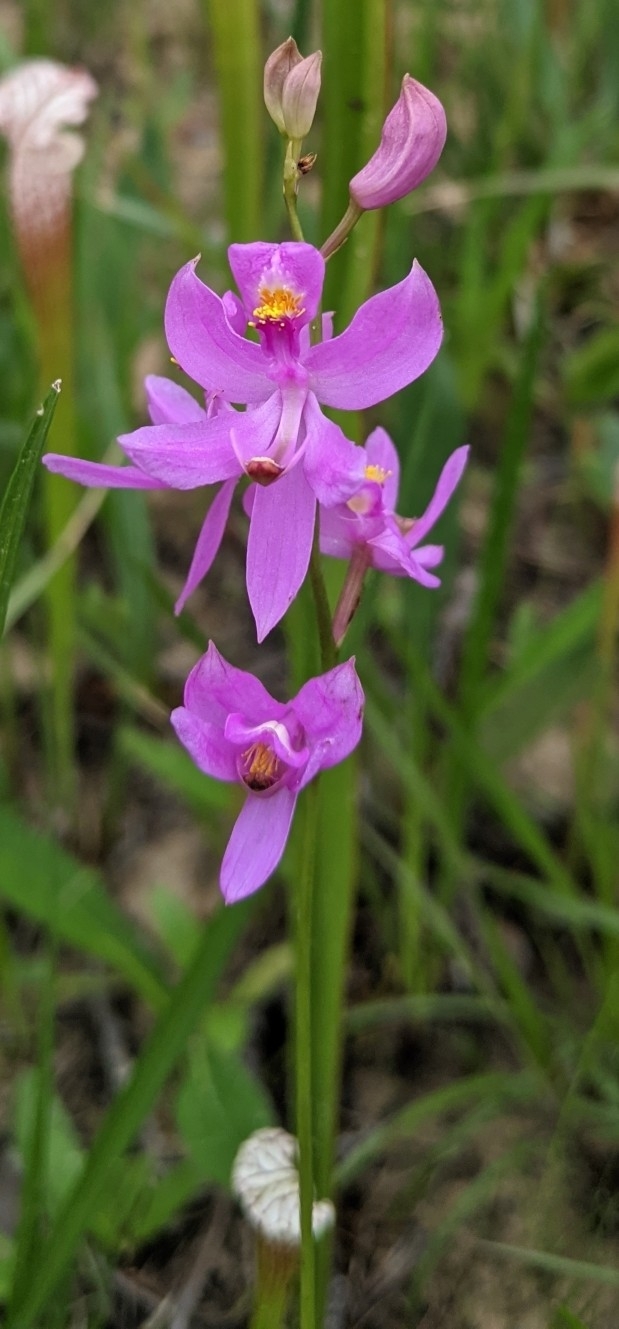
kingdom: Plantae
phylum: Tracheophyta
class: Liliopsida
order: Asparagales
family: Orchidaceae
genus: Calopogon
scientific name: Calopogon pallidus
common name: Pale grasspink
